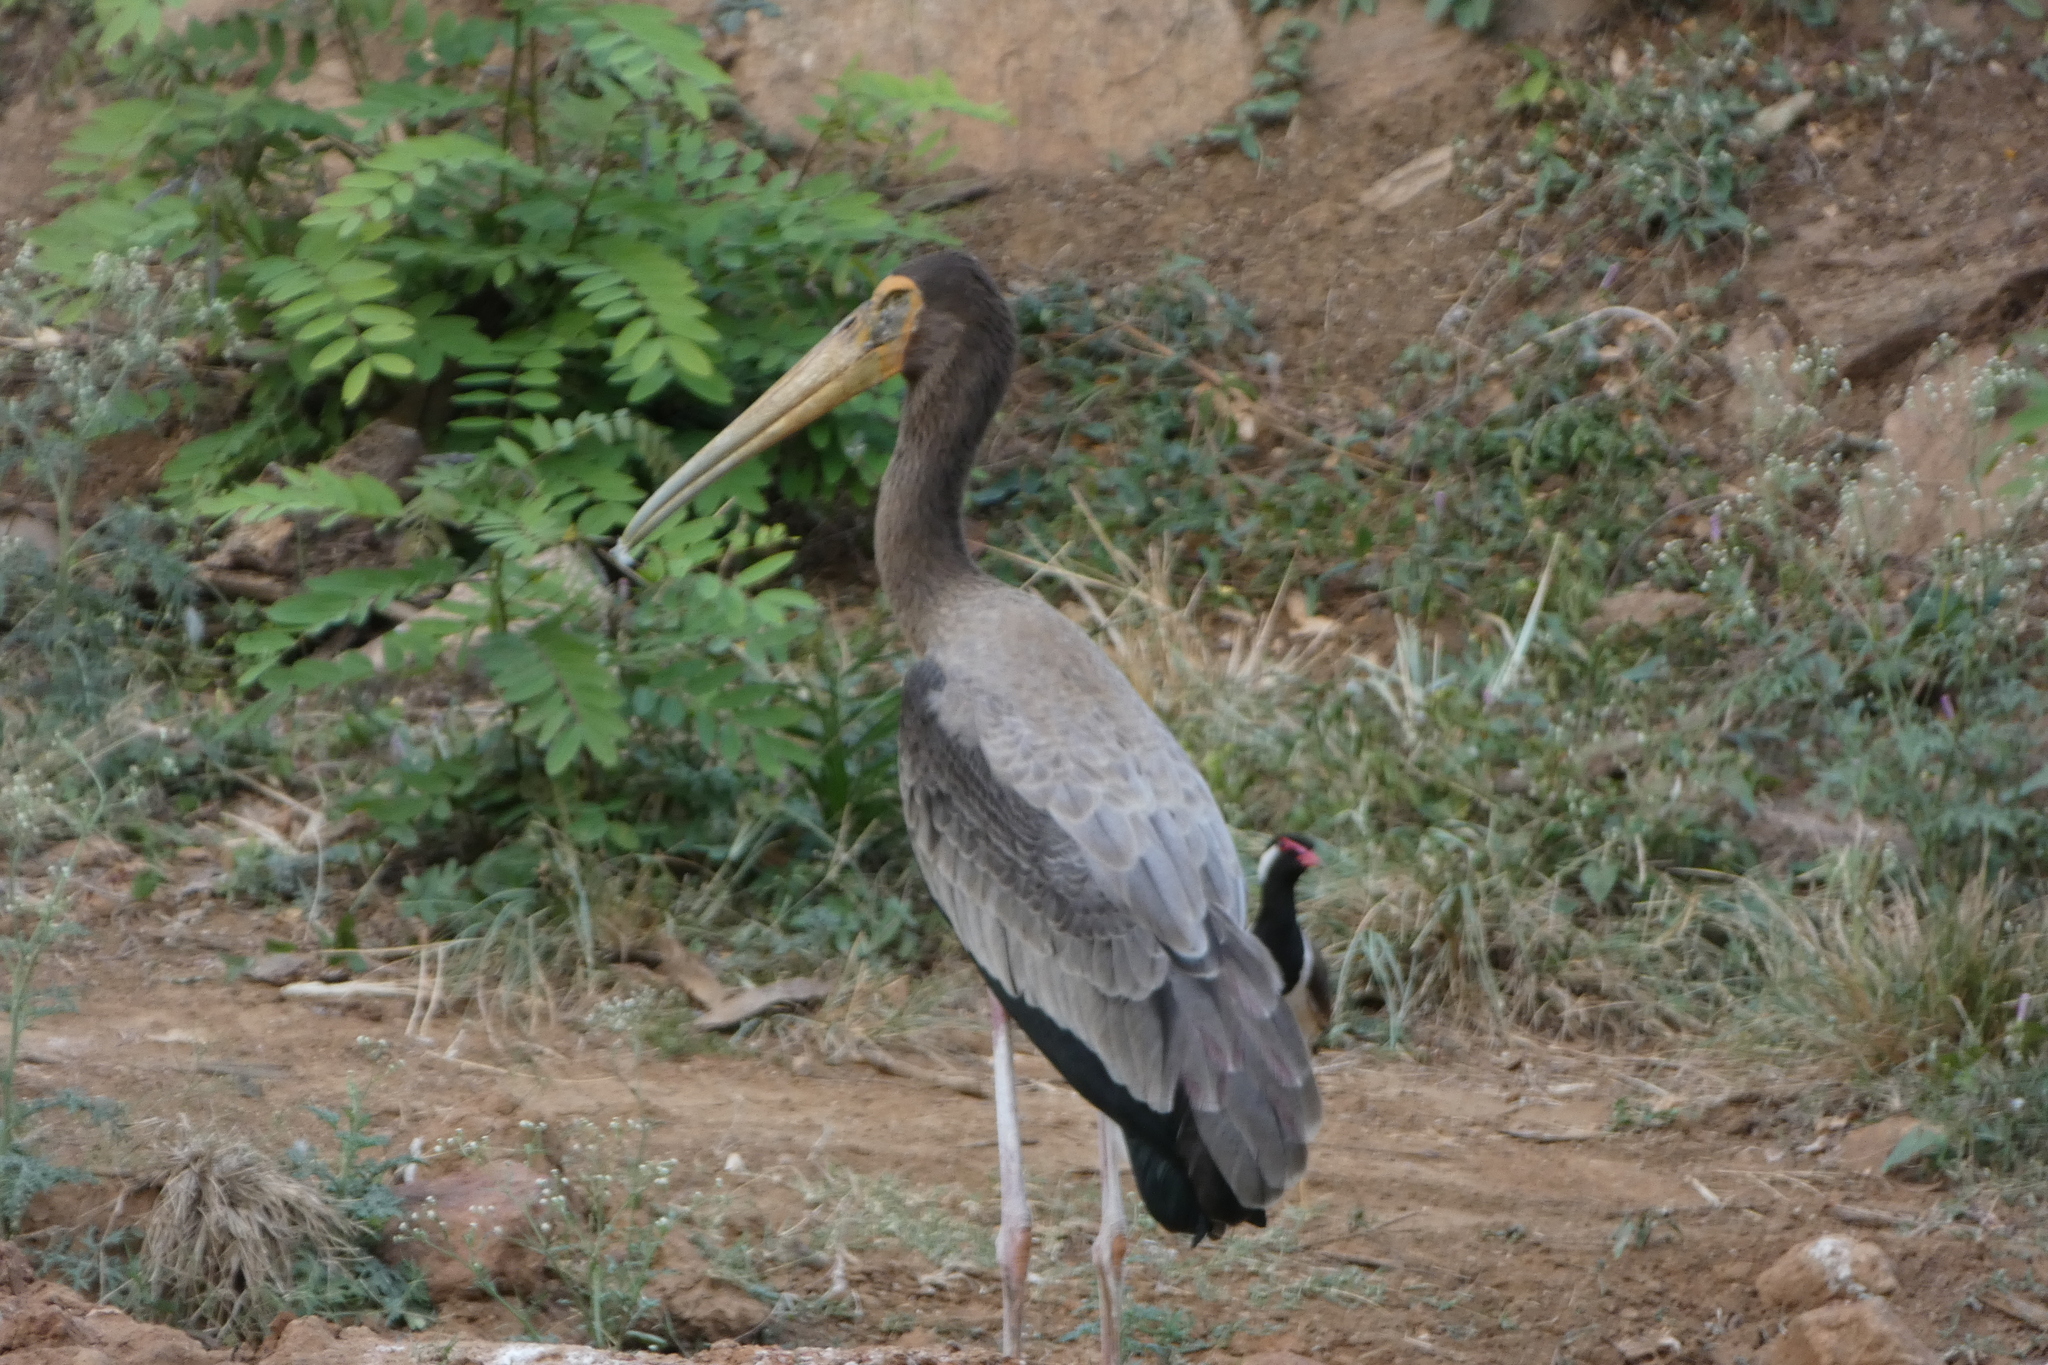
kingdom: Animalia
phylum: Chordata
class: Aves
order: Ciconiiformes
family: Ciconiidae
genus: Mycteria
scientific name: Mycteria leucocephala
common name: Painted stork
